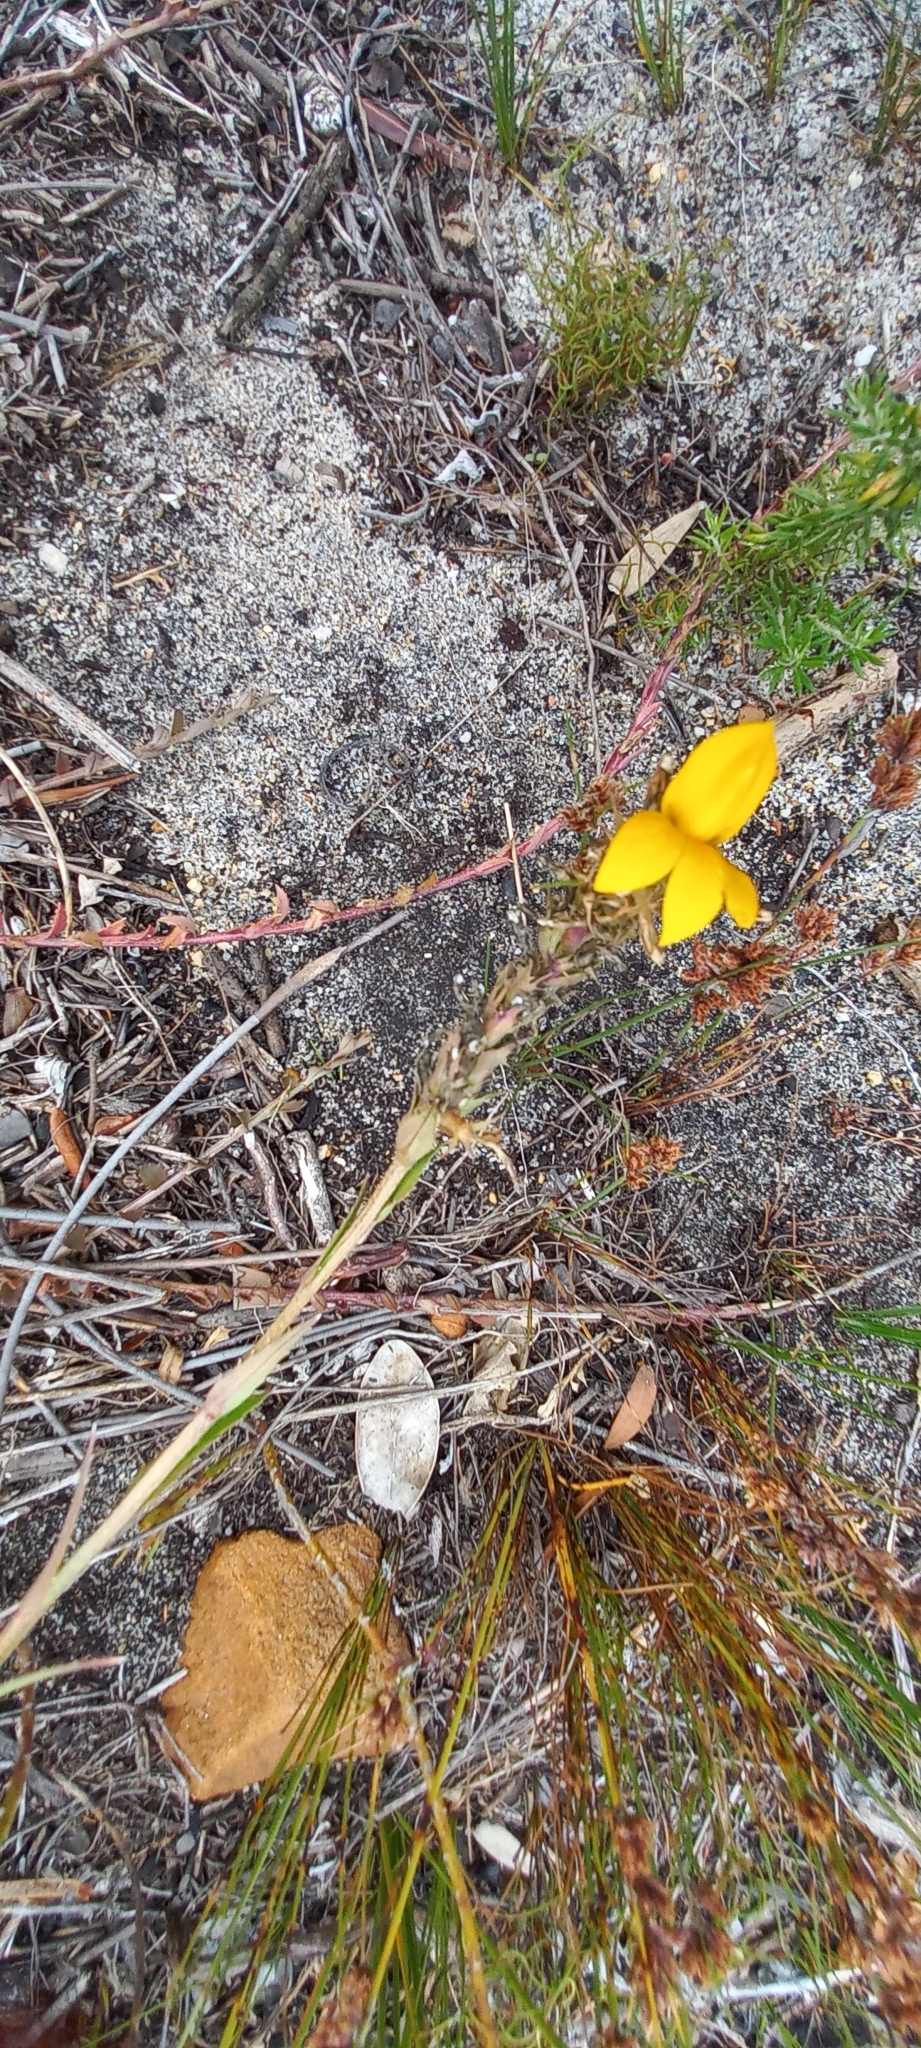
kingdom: Plantae
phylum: Tracheophyta
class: Magnoliopsida
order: Asterales
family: Campanulaceae
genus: Monopsis
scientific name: Monopsis lutea
